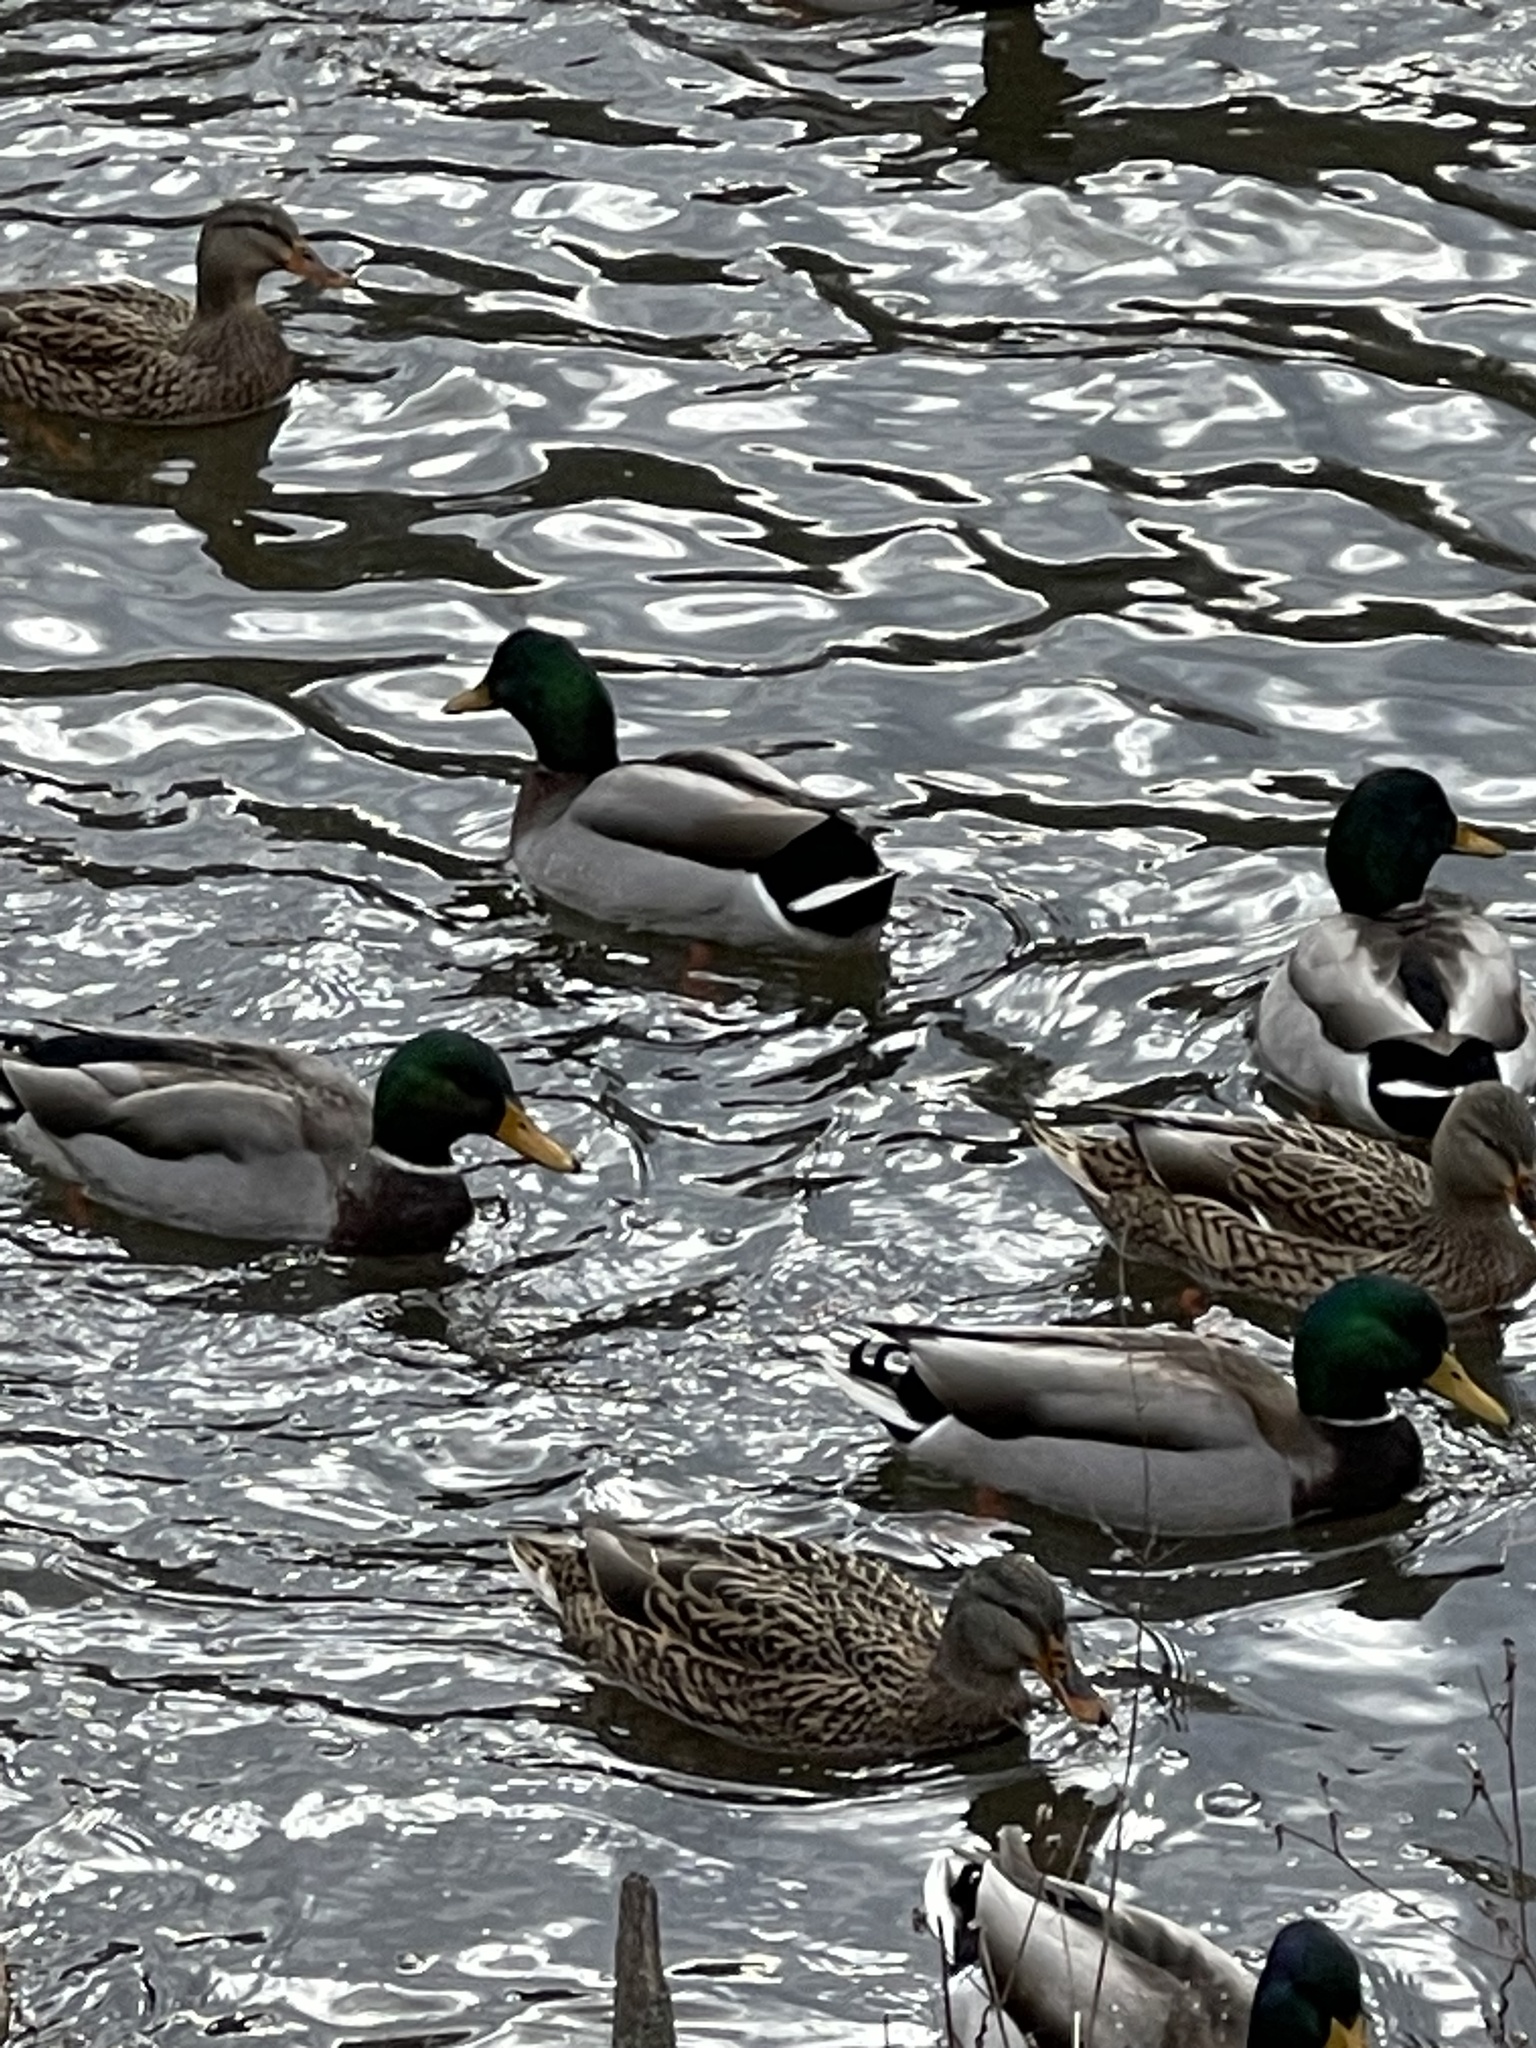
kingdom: Animalia
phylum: Chordata
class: Aves
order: Anseriformes
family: Anatidae
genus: Anas
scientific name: Anas platyrhynchos
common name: Mallard
